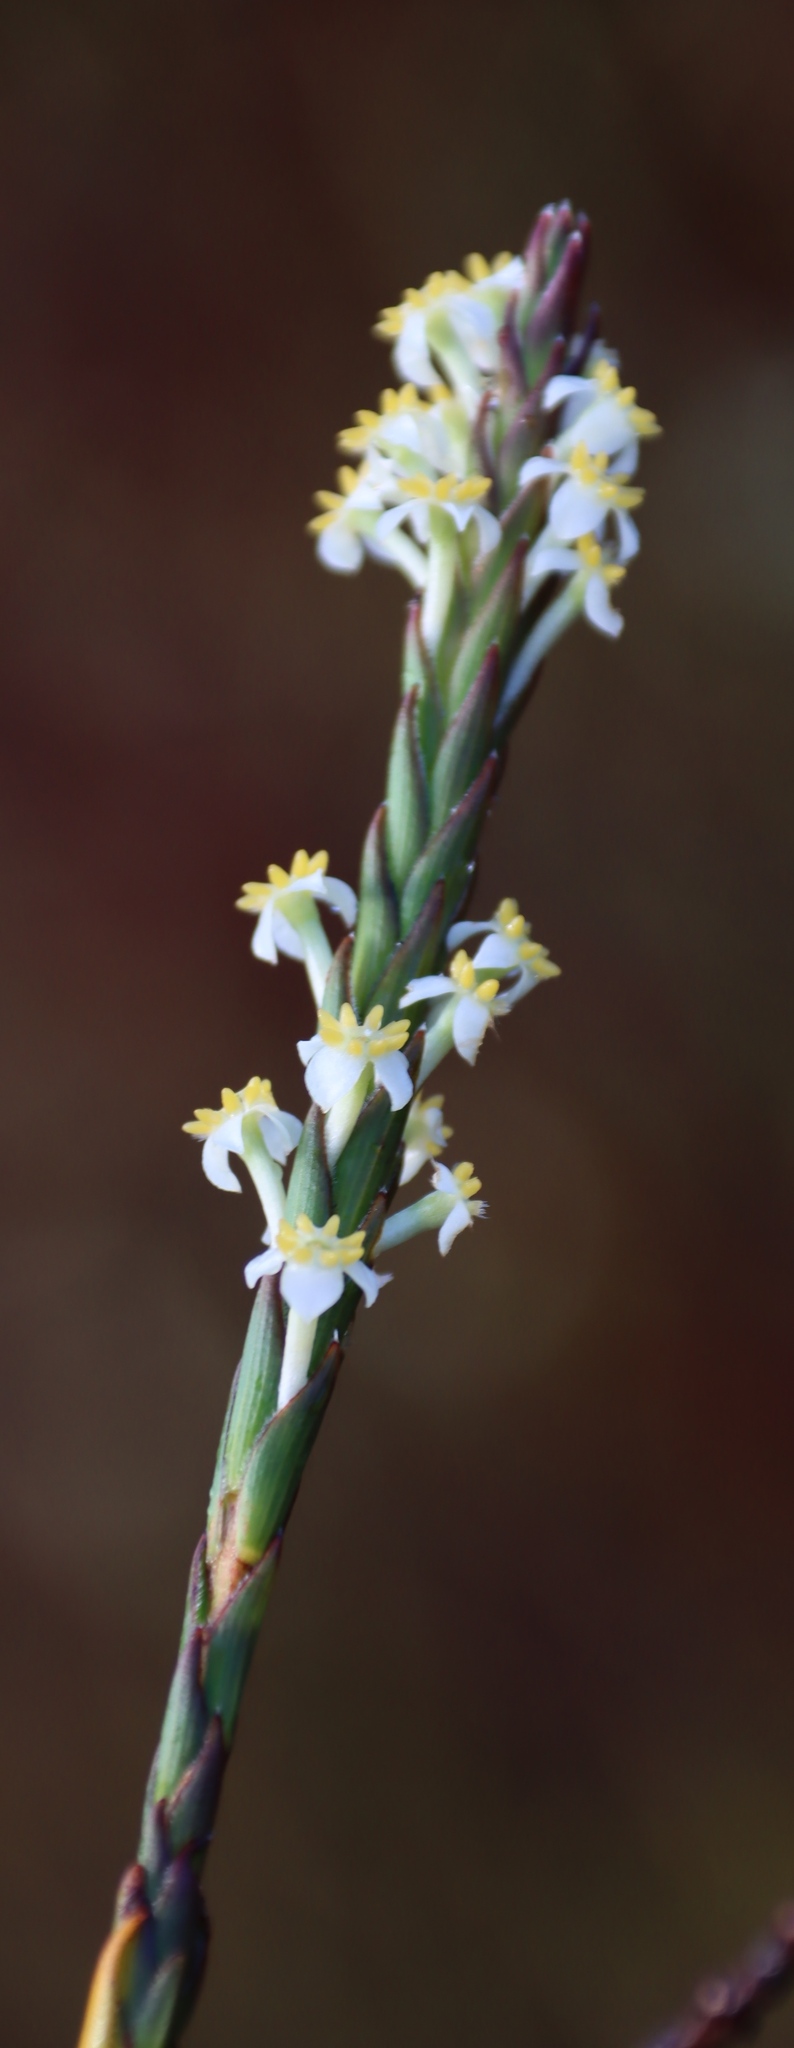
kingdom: Plantae
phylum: Tracheophyta
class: Magnoliopsida
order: Malvales
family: Thymelaeaceae
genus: Struthiola
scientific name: Struthiola ciliata
